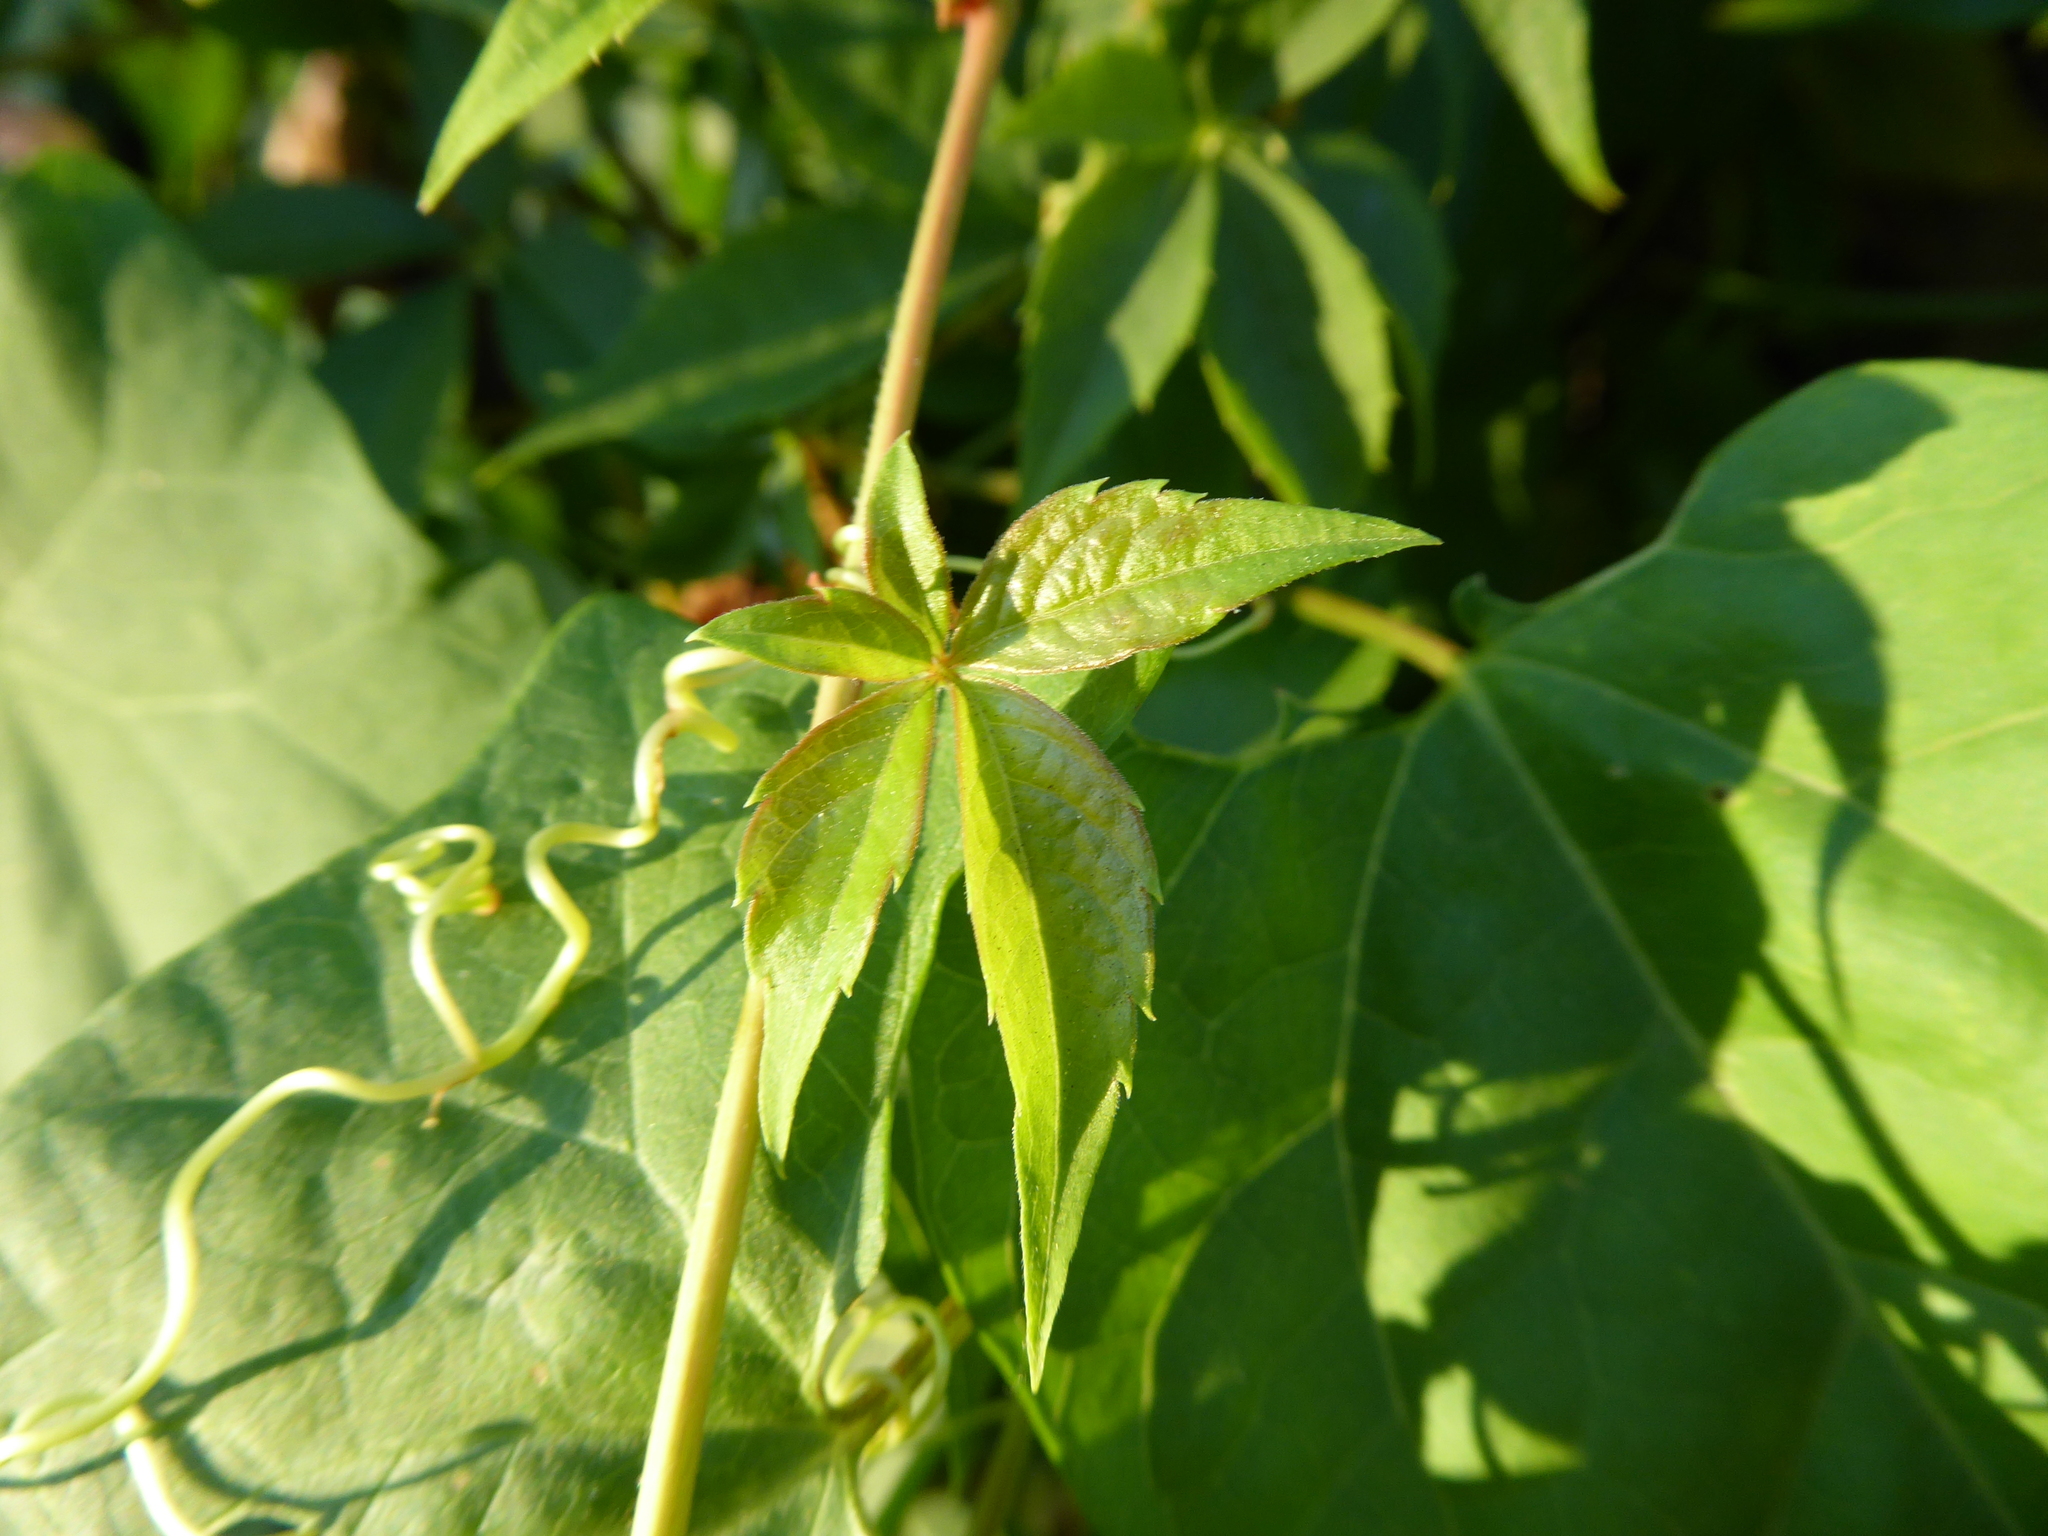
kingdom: Plantae
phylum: Tracheophyta
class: Magnoliopsida
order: Vitales
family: Vitaceae
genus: Parthenocissus
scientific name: Parthenocissus
